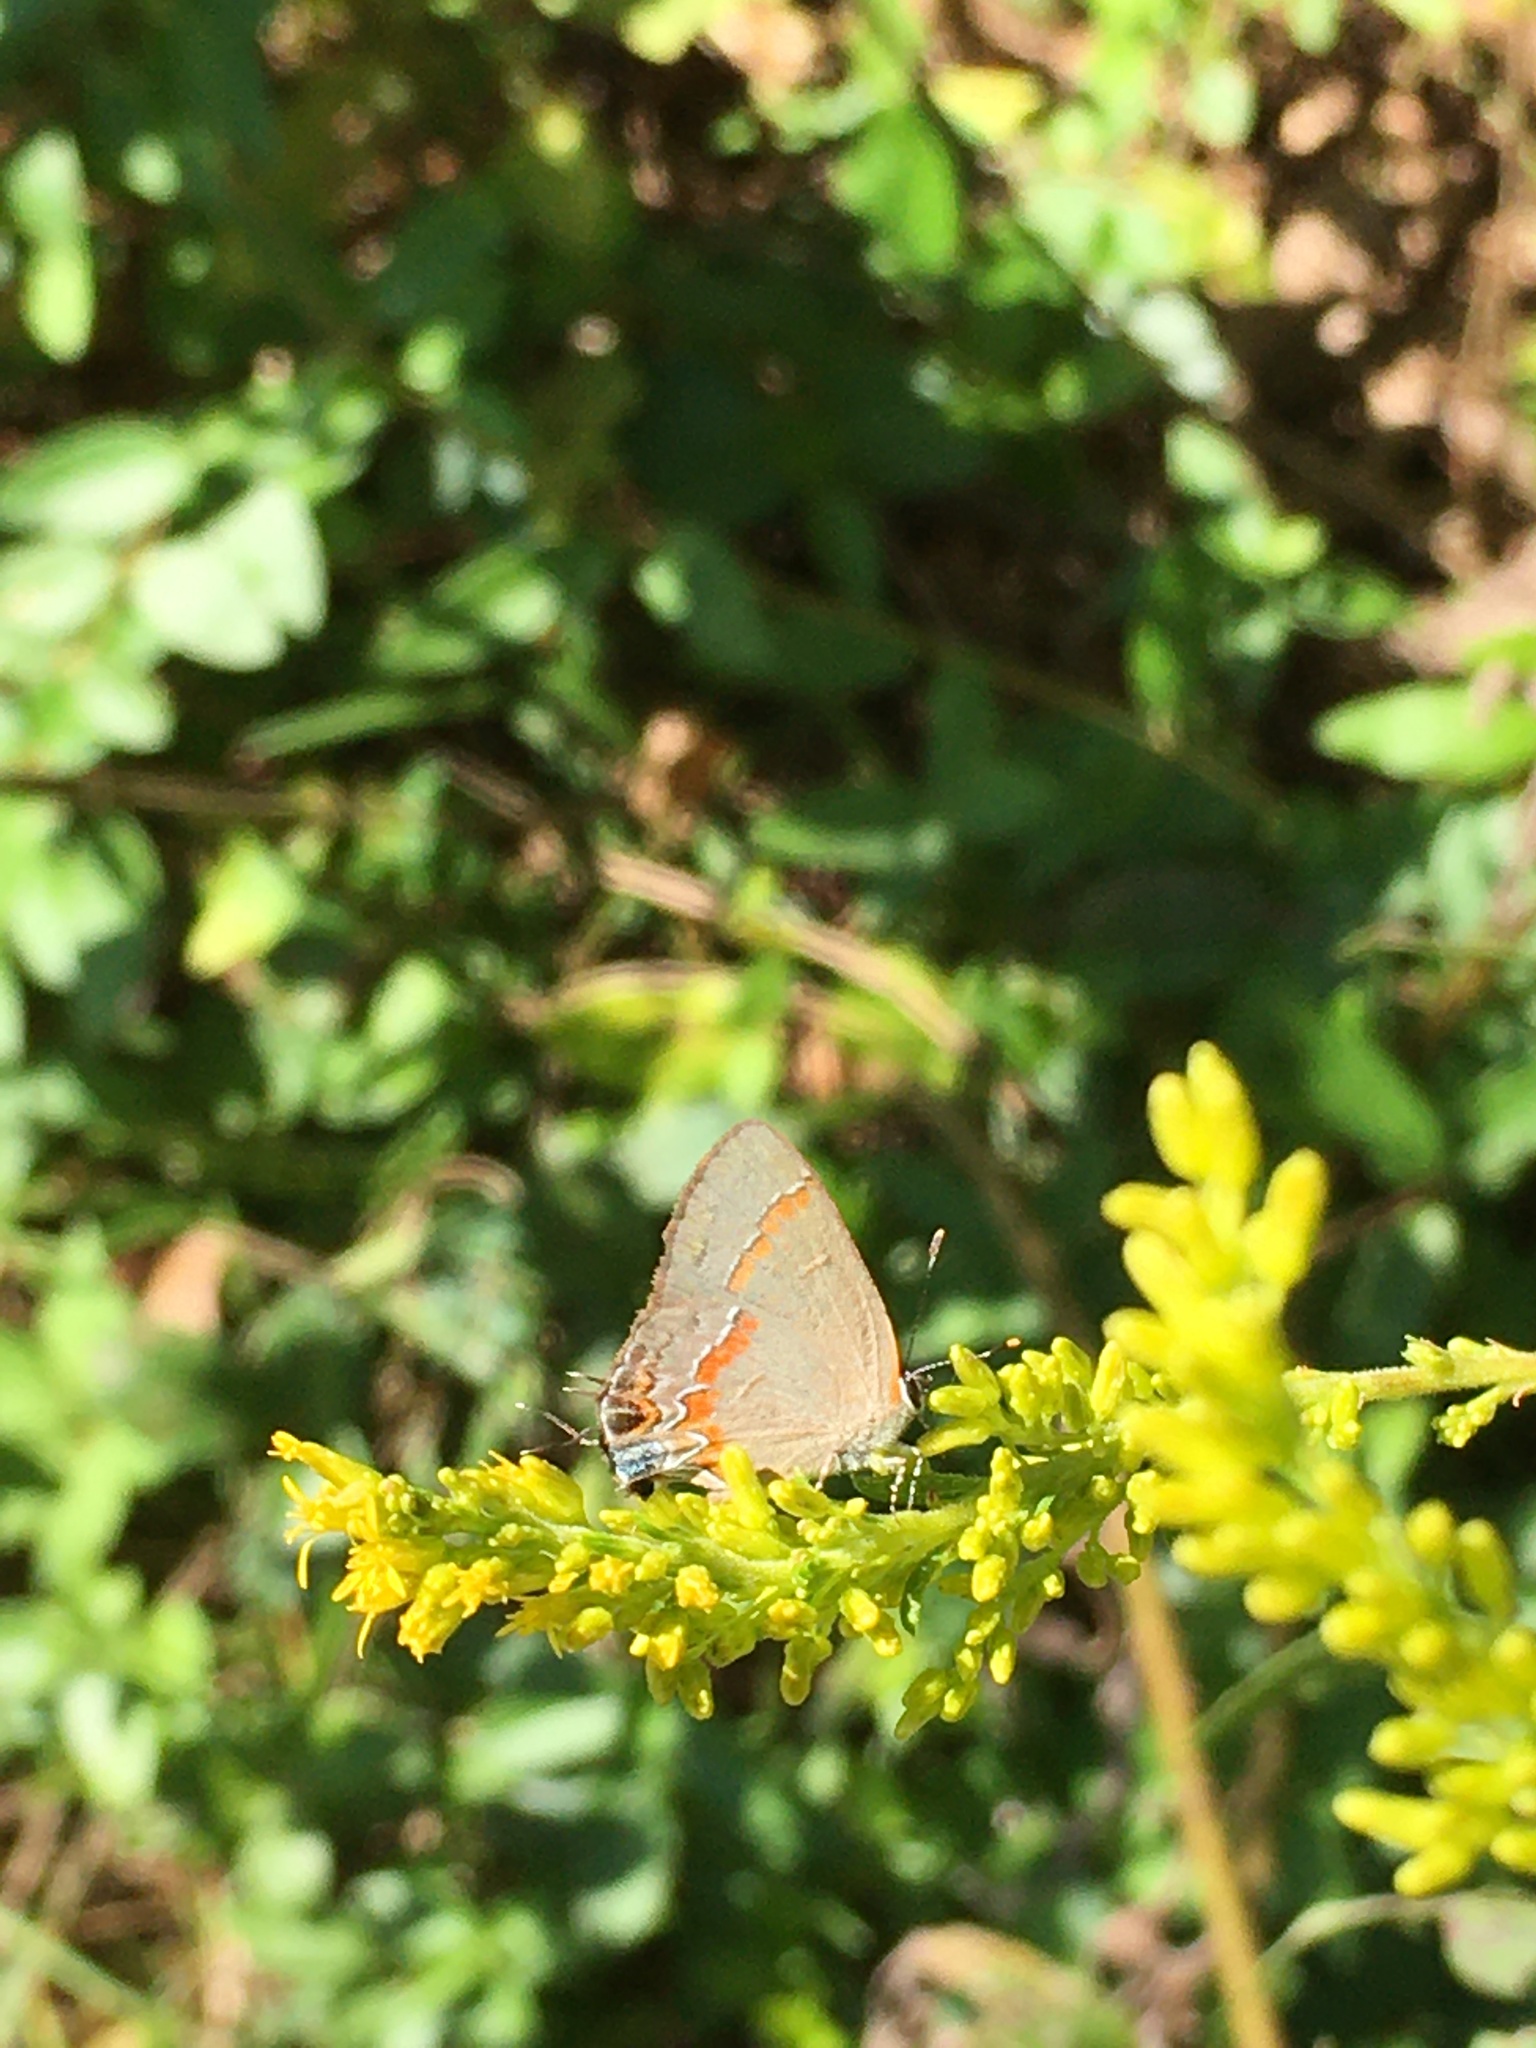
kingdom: Animalia
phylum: Arthropoda
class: Insecta
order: Lepidoptera
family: Lycaenidae
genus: Calycopis
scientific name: Calycopis cecrops
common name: Red-banded hairstreak
